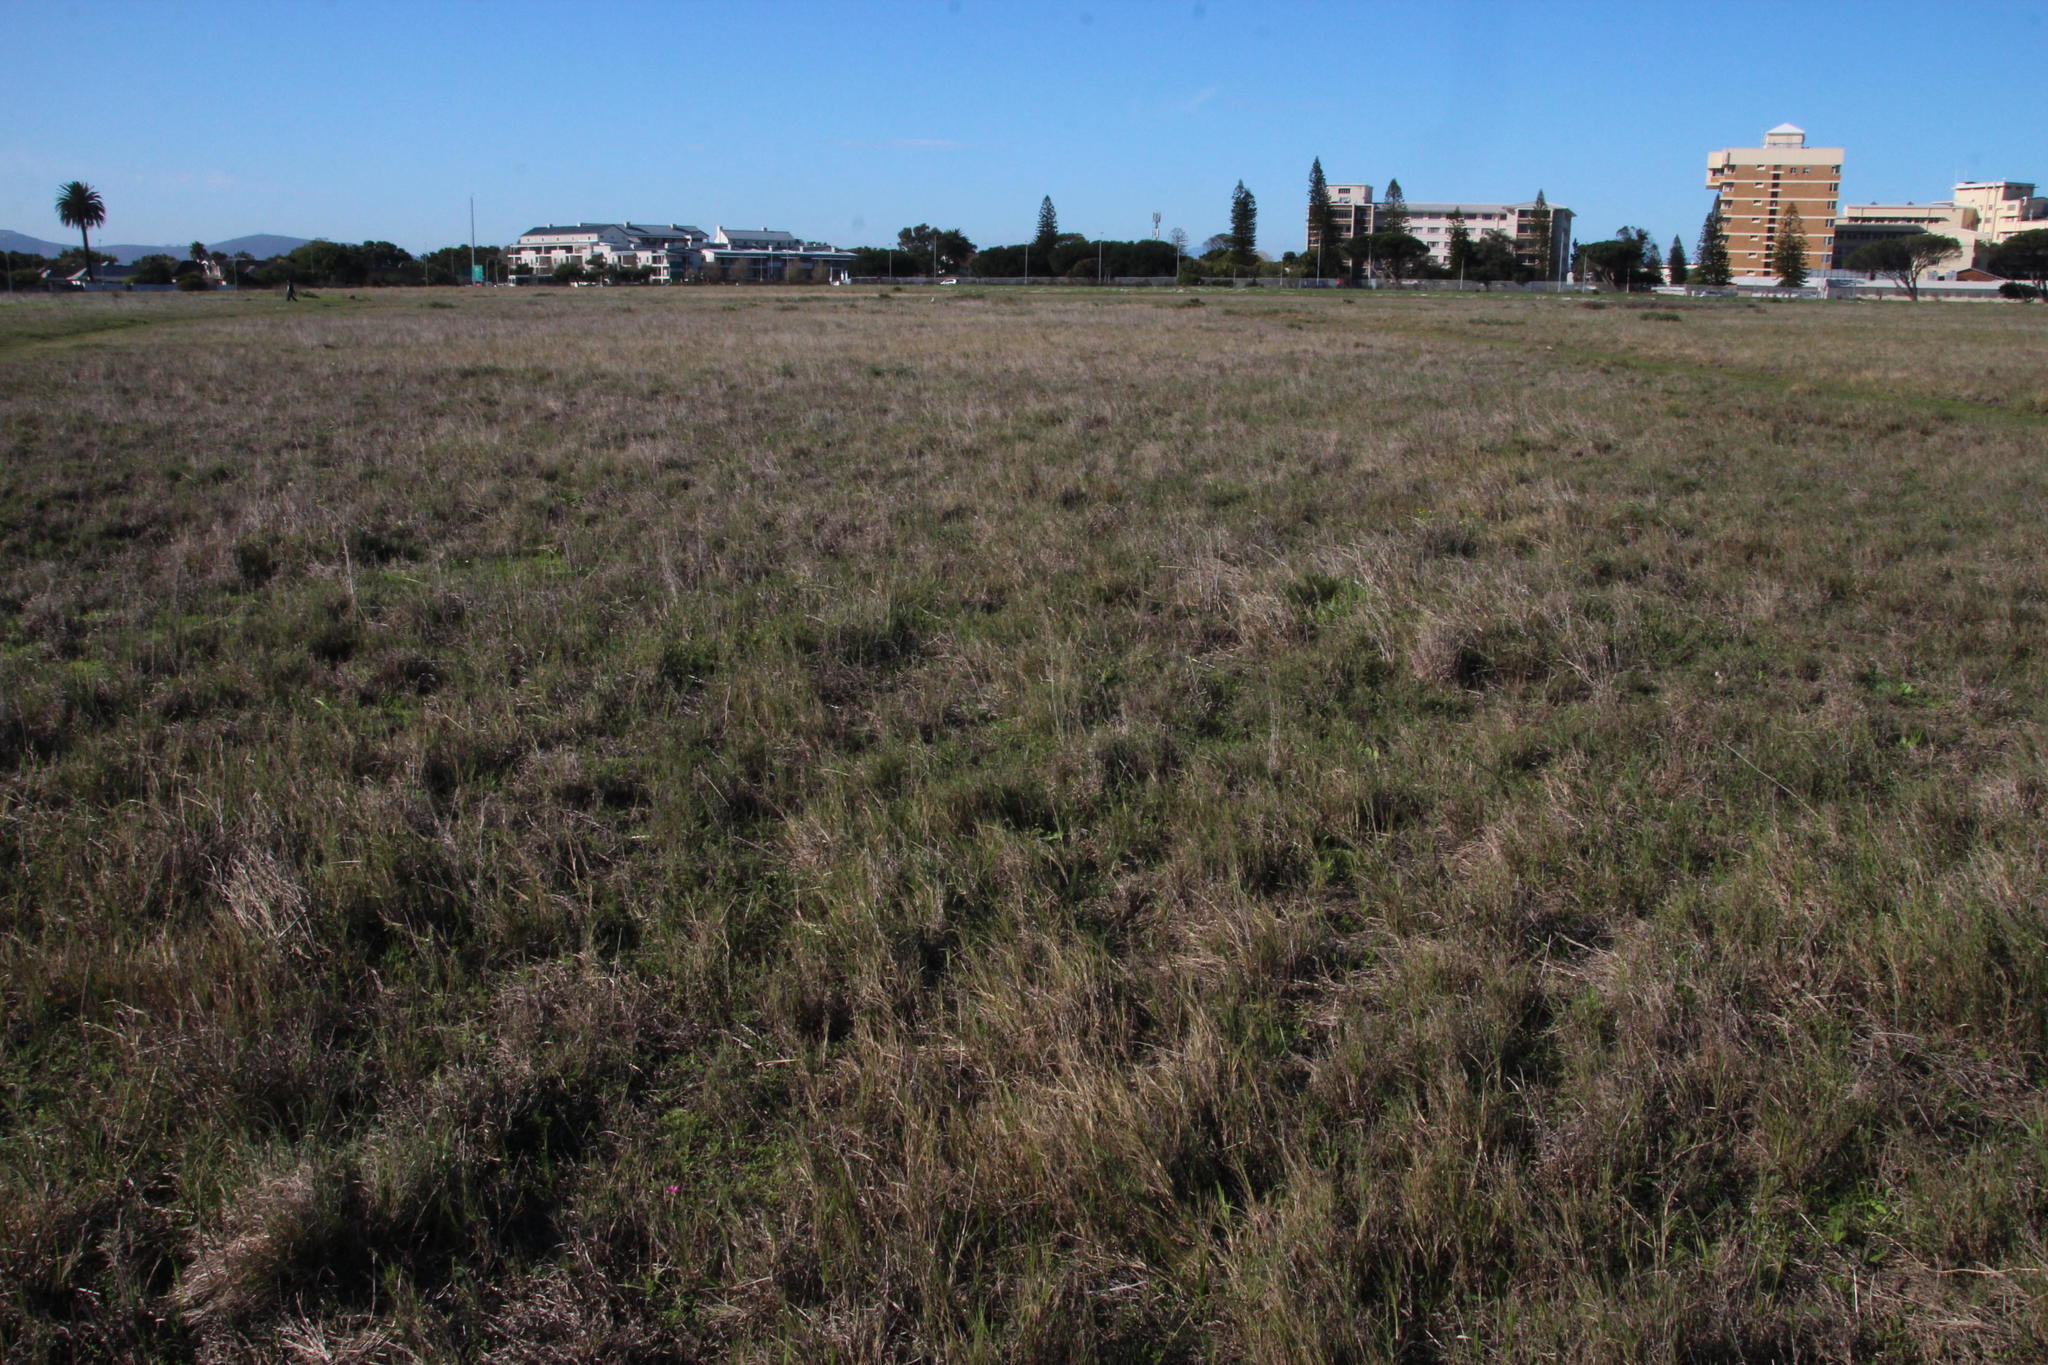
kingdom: Plantae
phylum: Tracheophyta
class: Magnoliopsida
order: Oxalidales
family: Oxalidaceae
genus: Oxalis
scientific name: Oxalis purpurea
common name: Purple woodsorrel
